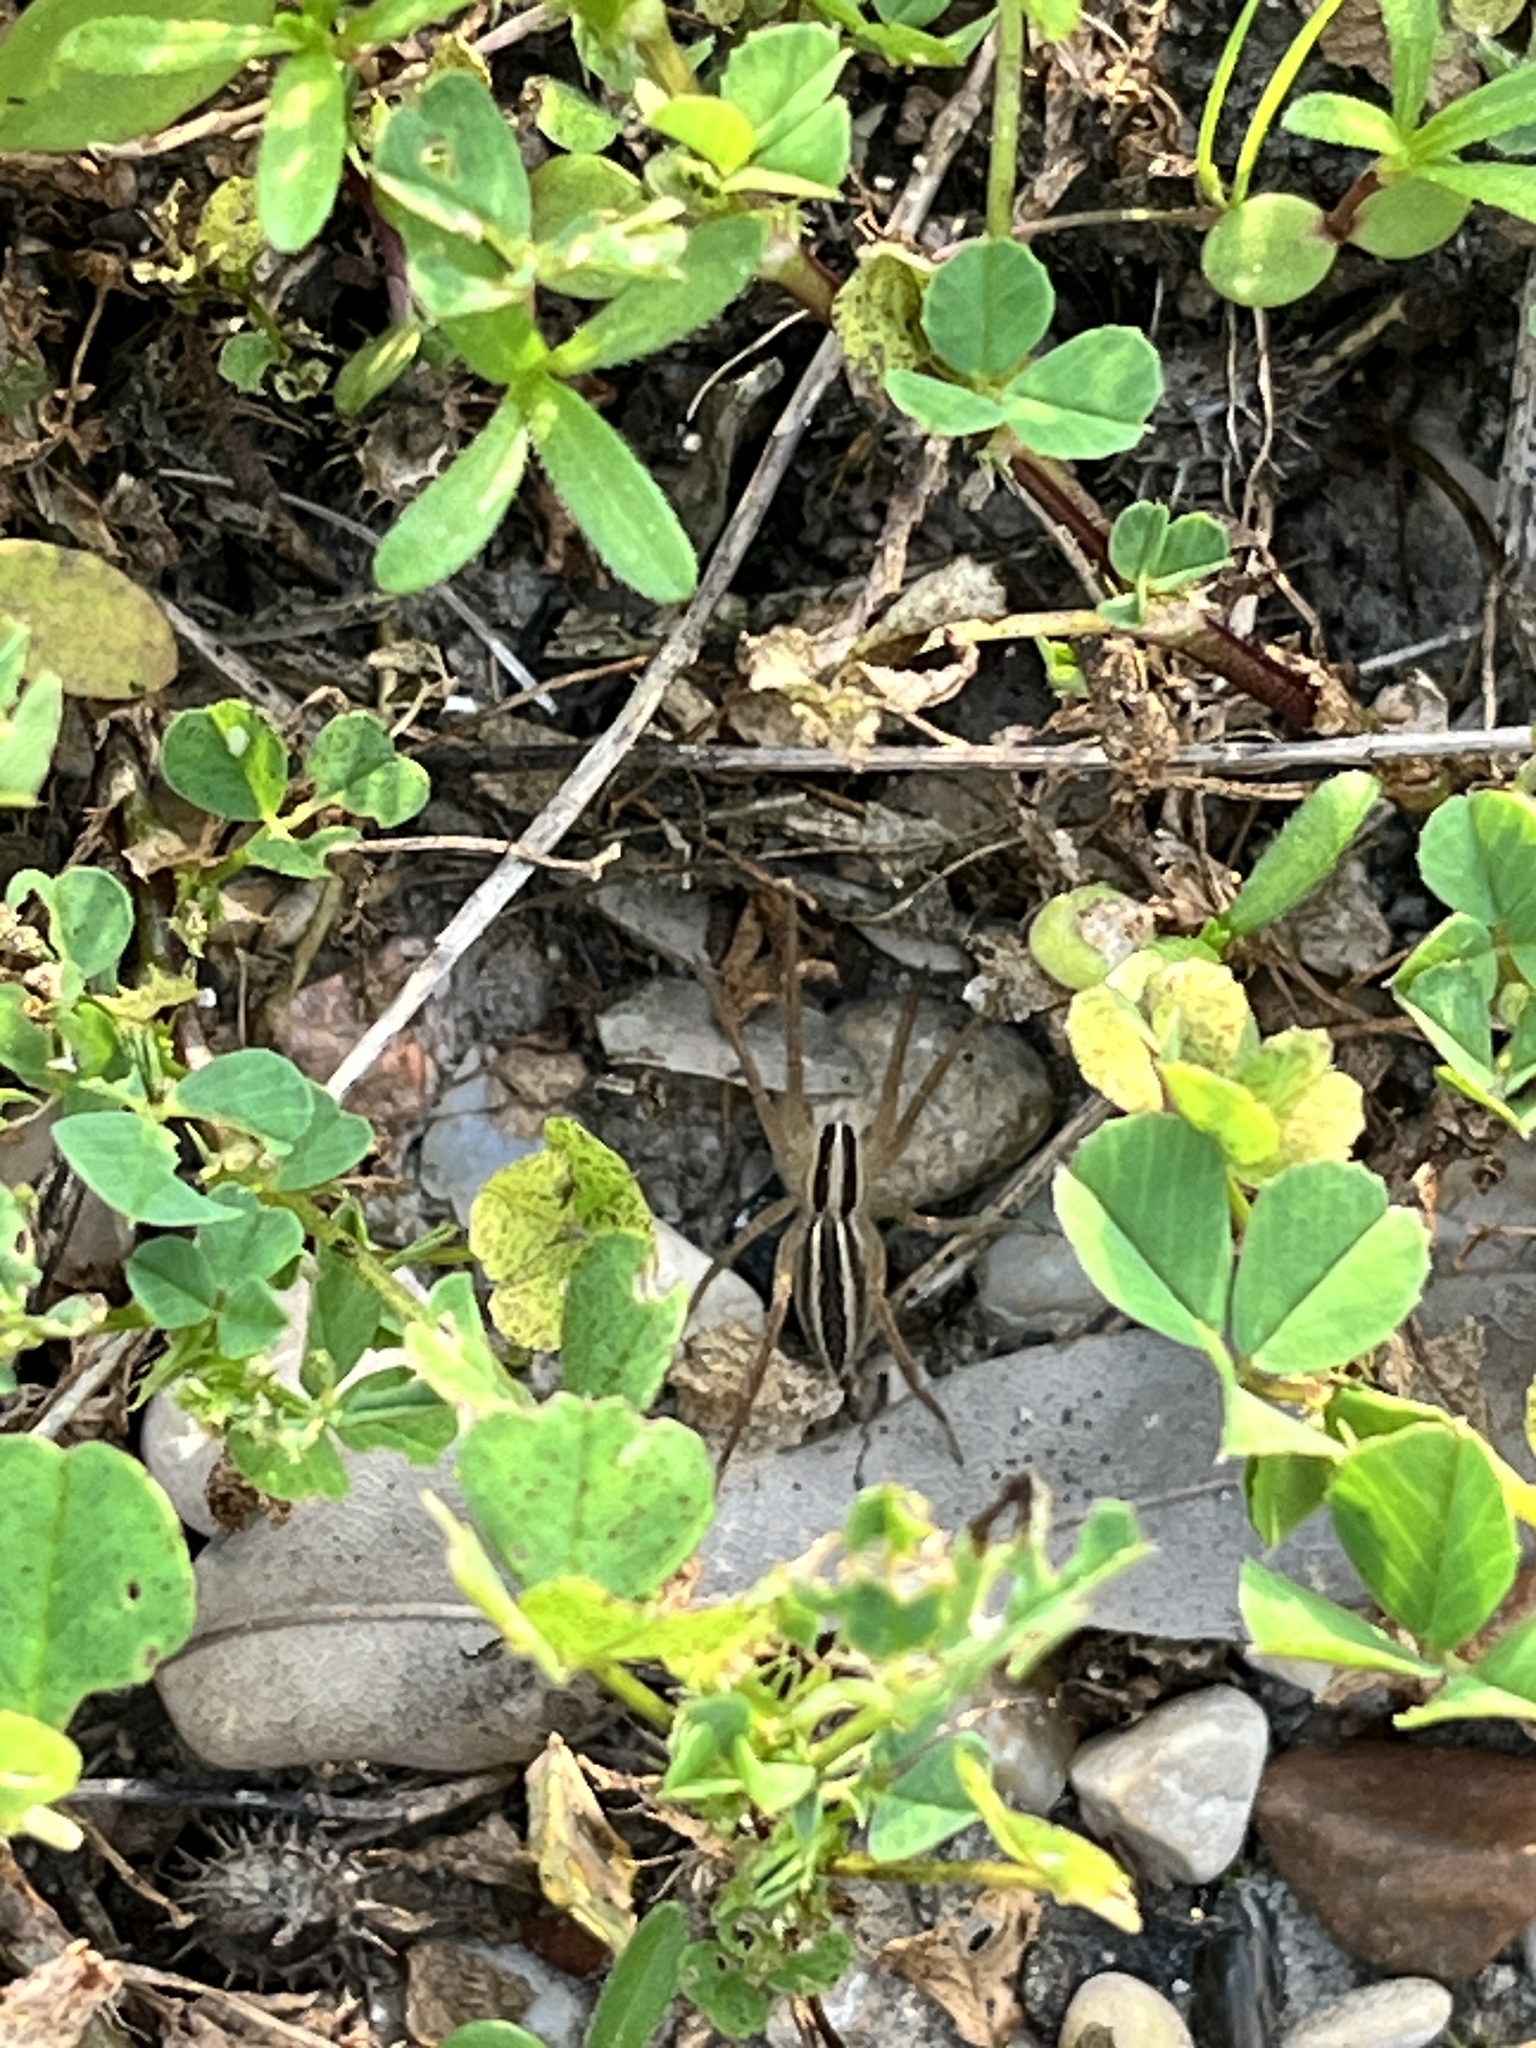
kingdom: Animalia
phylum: Arthropoda
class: Arachnida
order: Araneae
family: Lycosidae
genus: Rabidosa
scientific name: Rabidosa rabida
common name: Rabid wolf spider
